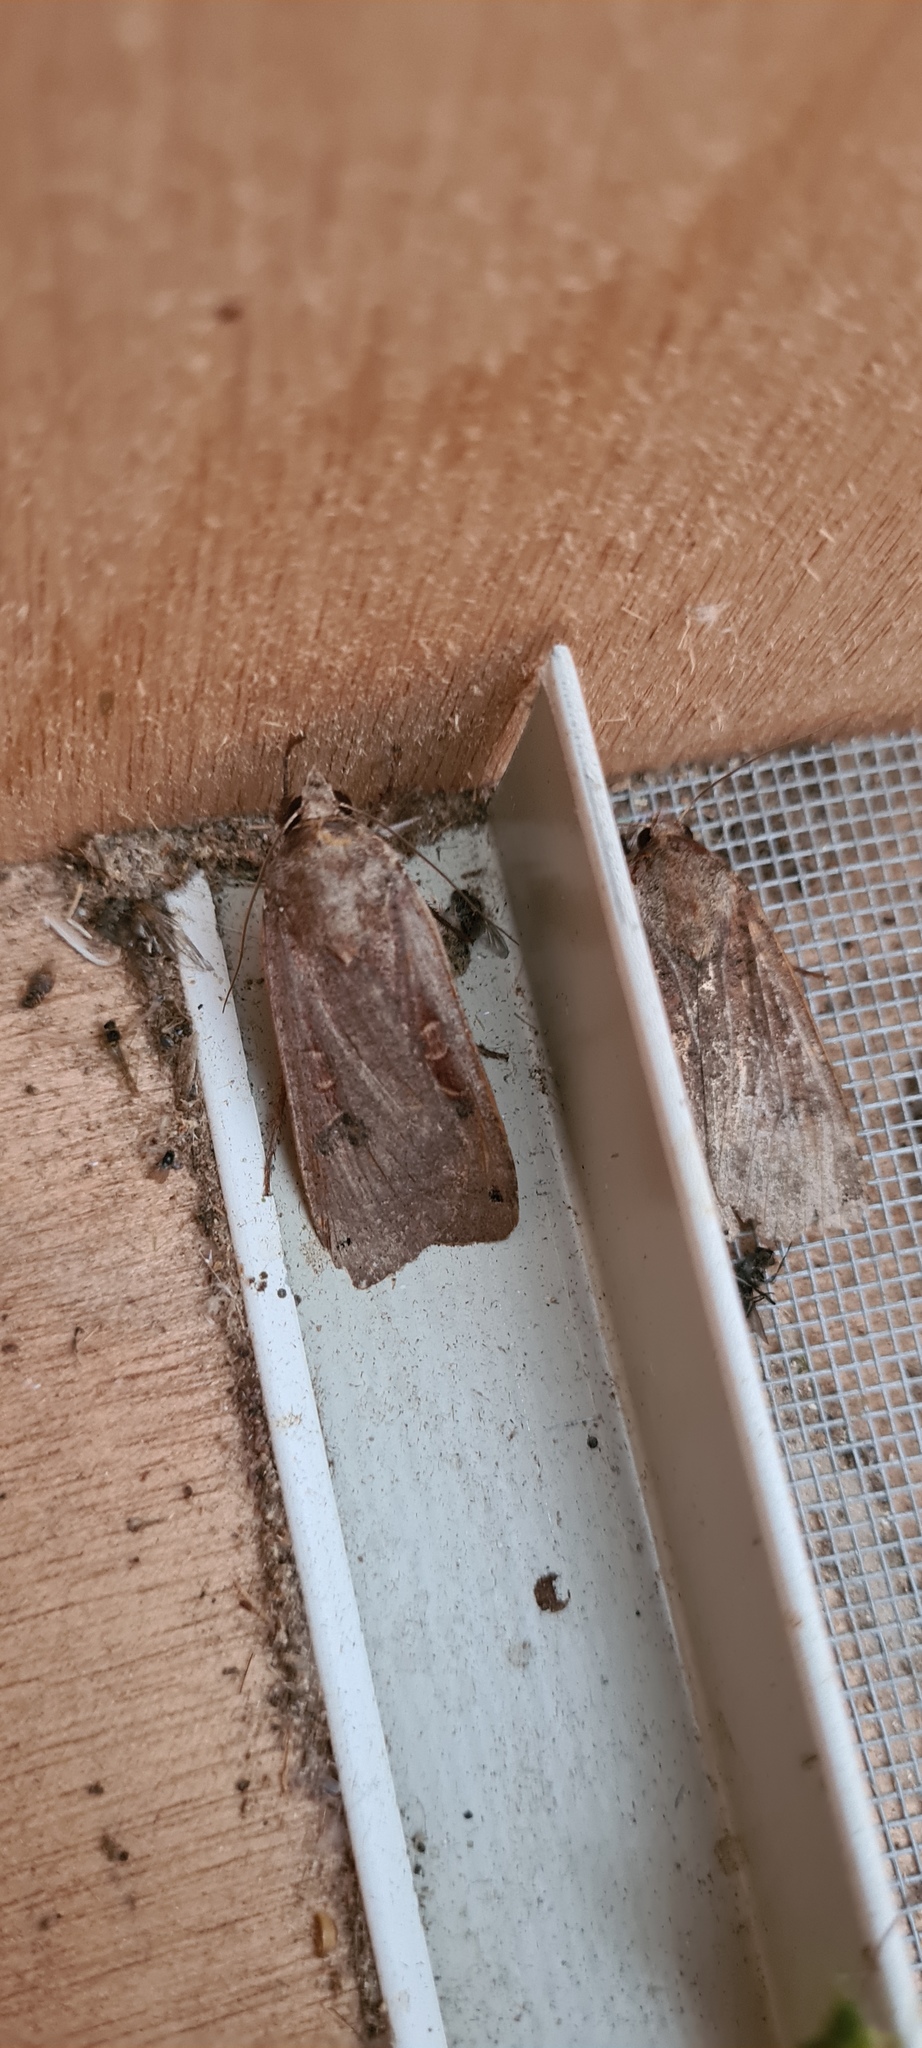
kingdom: Animalia
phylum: Arthropoda
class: Insecta
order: Lepidoptera
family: Noctuidae
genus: Noctua
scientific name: Noctua pronuba
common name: Large yellow underwing
